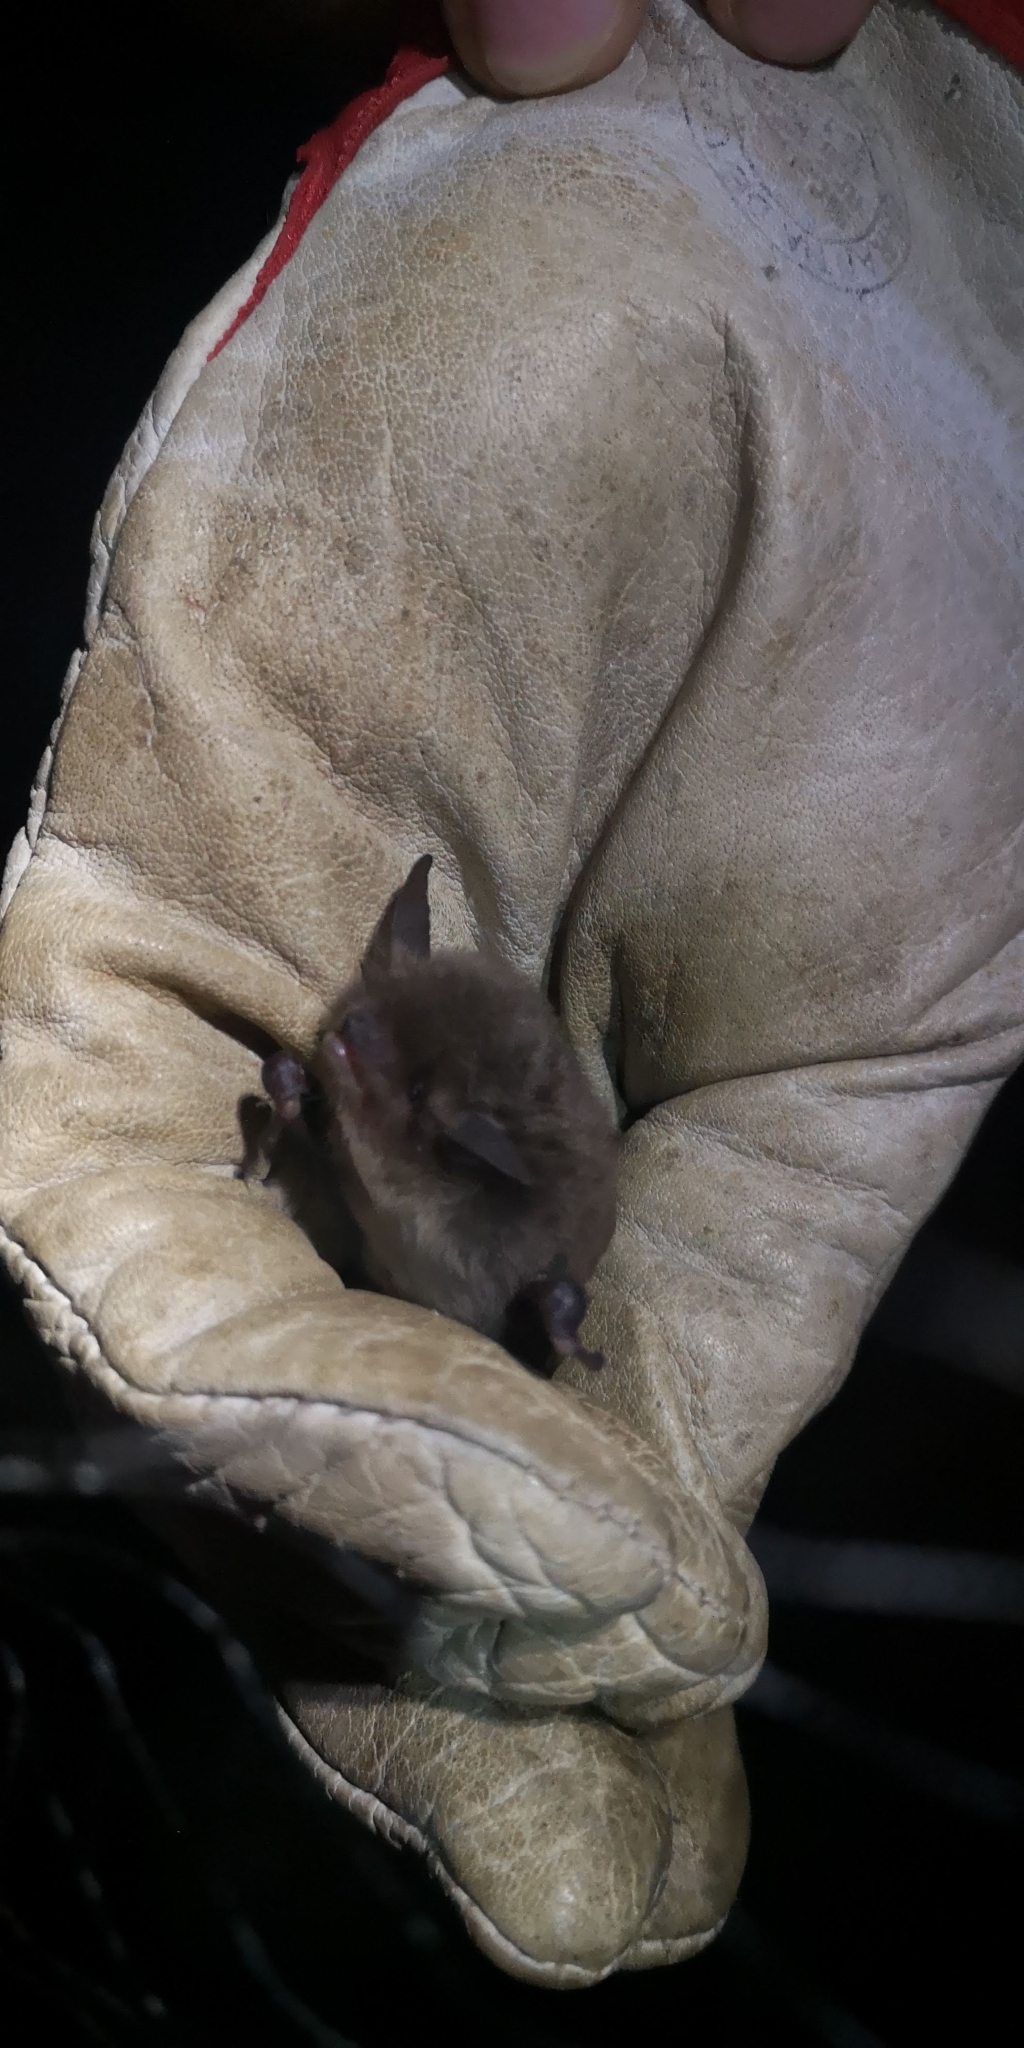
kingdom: Animalia
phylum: Chordata
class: Mammalia
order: Chiroptera
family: Vespertilionidae
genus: Myotis
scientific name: Myotis chiloensis
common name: Chilean myotis
